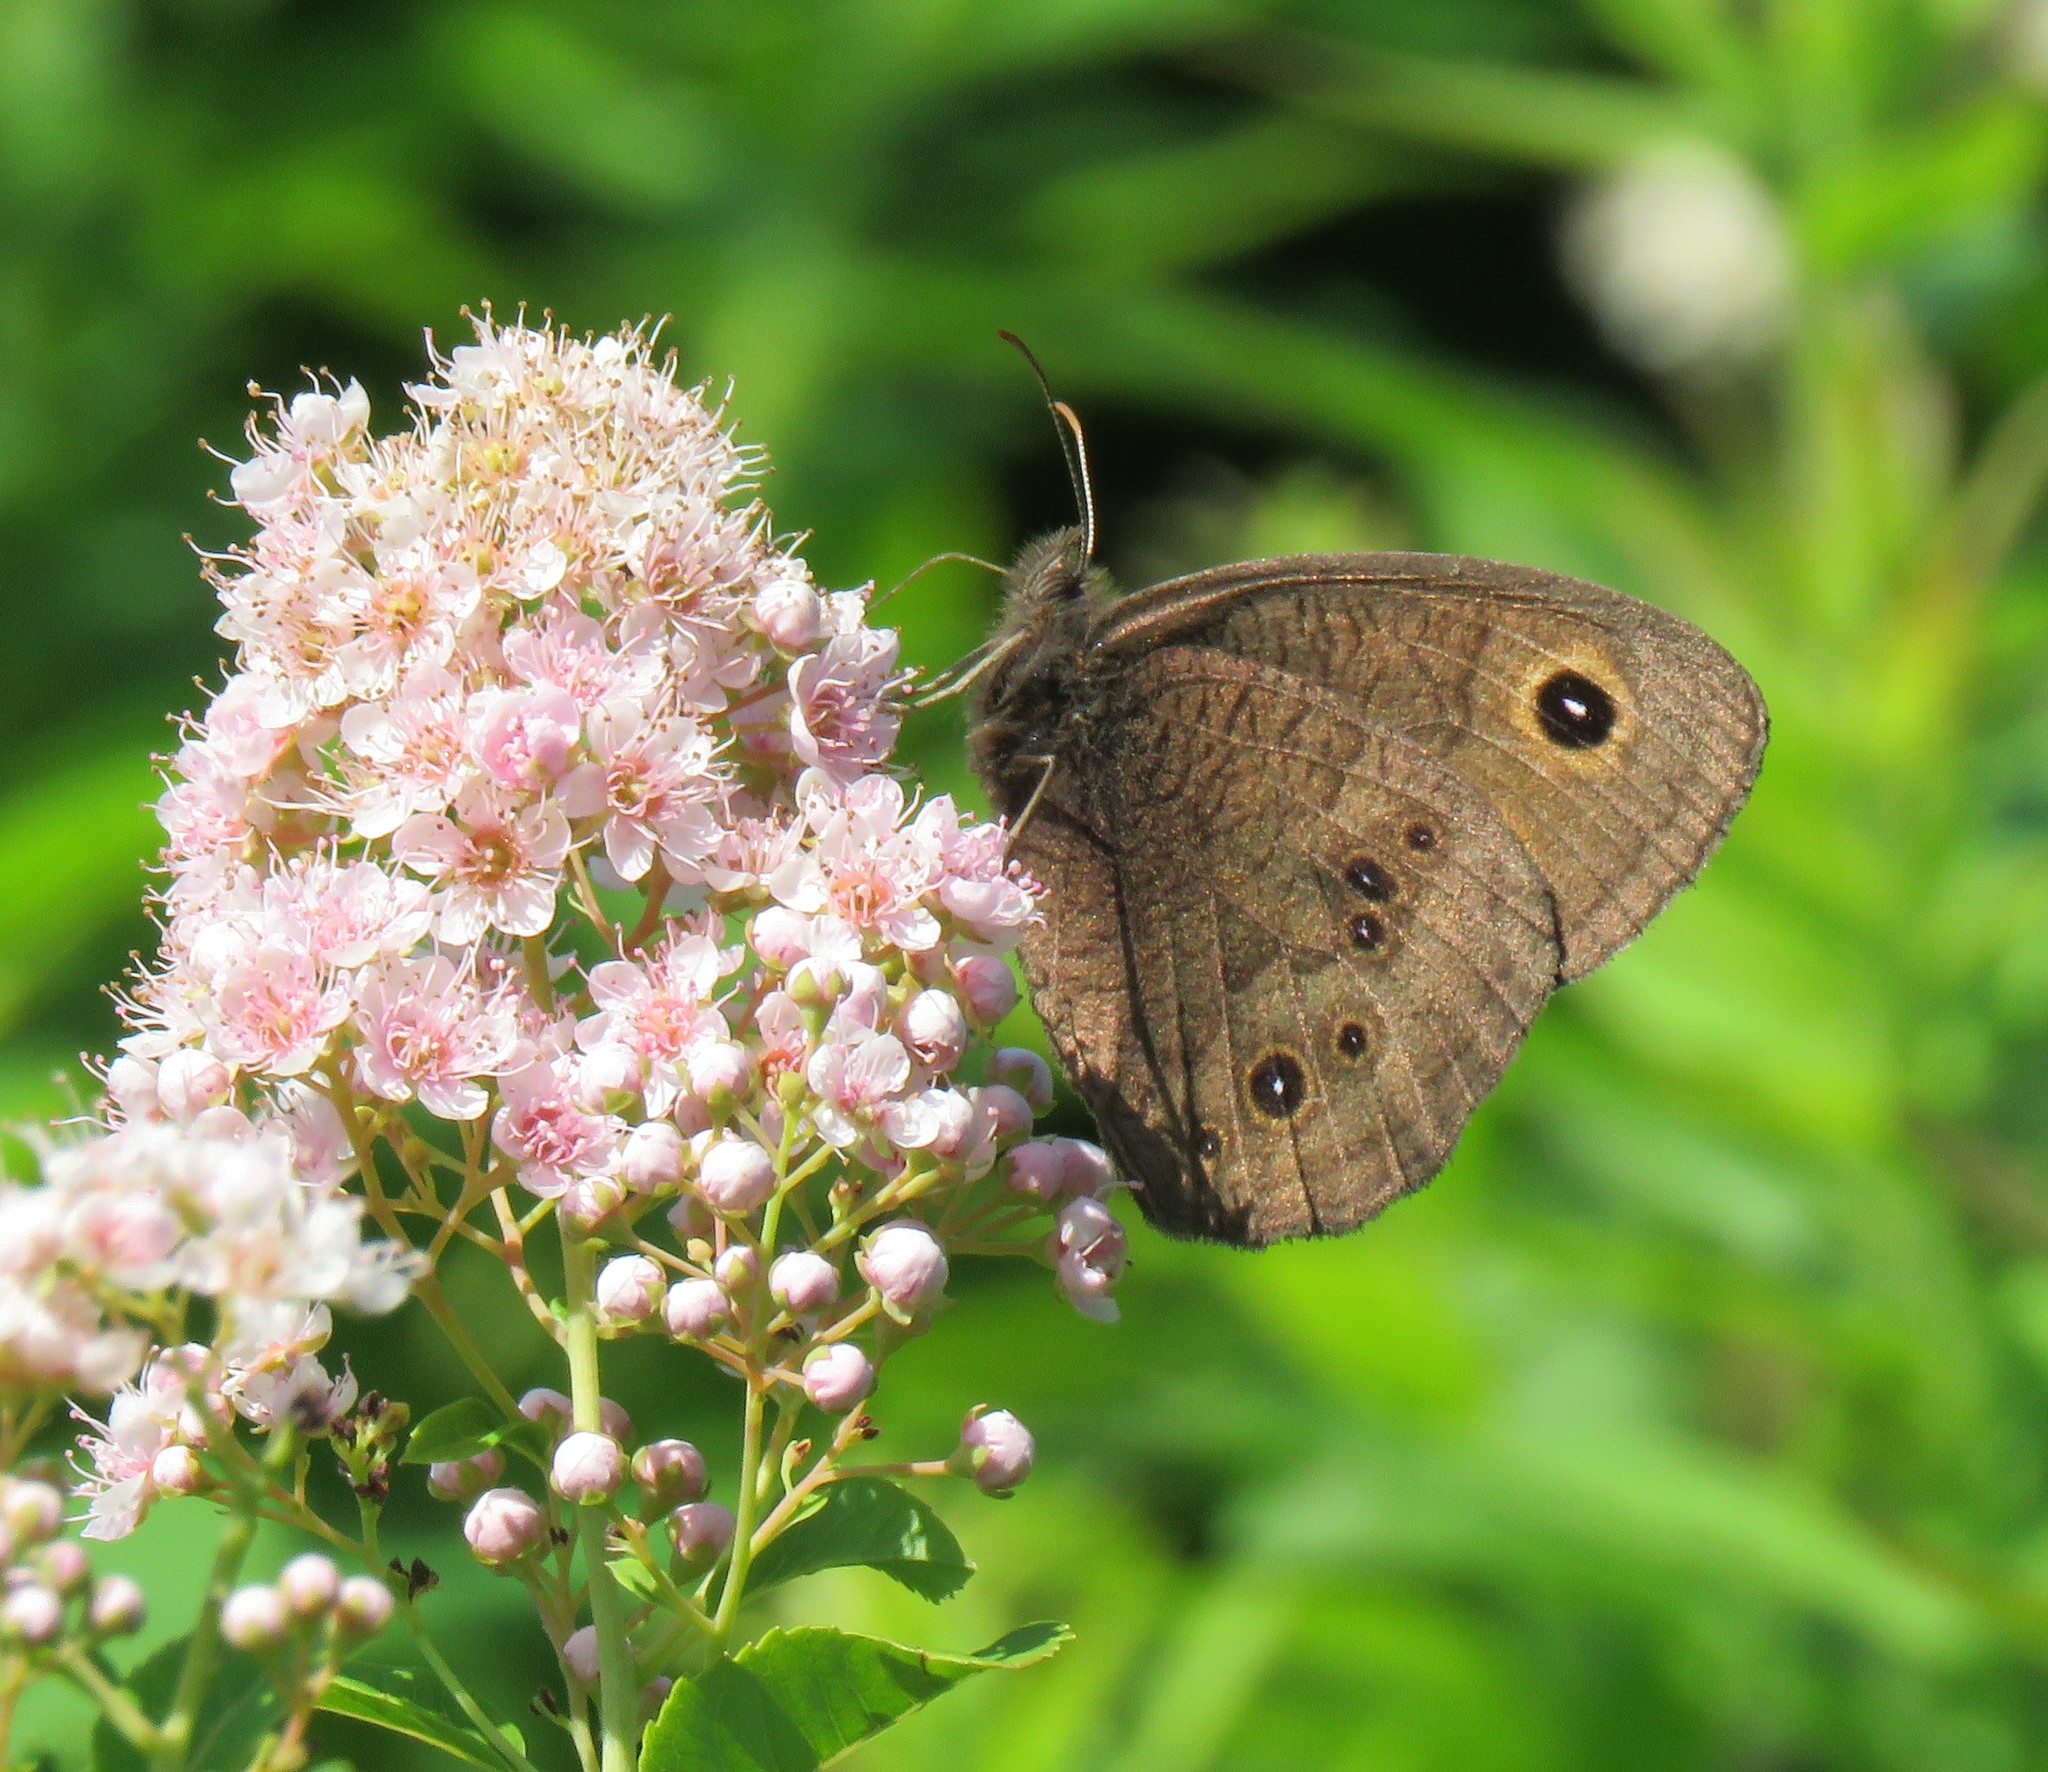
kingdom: Animalia
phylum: Arthropoda
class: Insecta
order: Lepidoptera
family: Nymphalidae
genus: Cercyonis
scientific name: Cercyonis pegala
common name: Common wood-nymph
